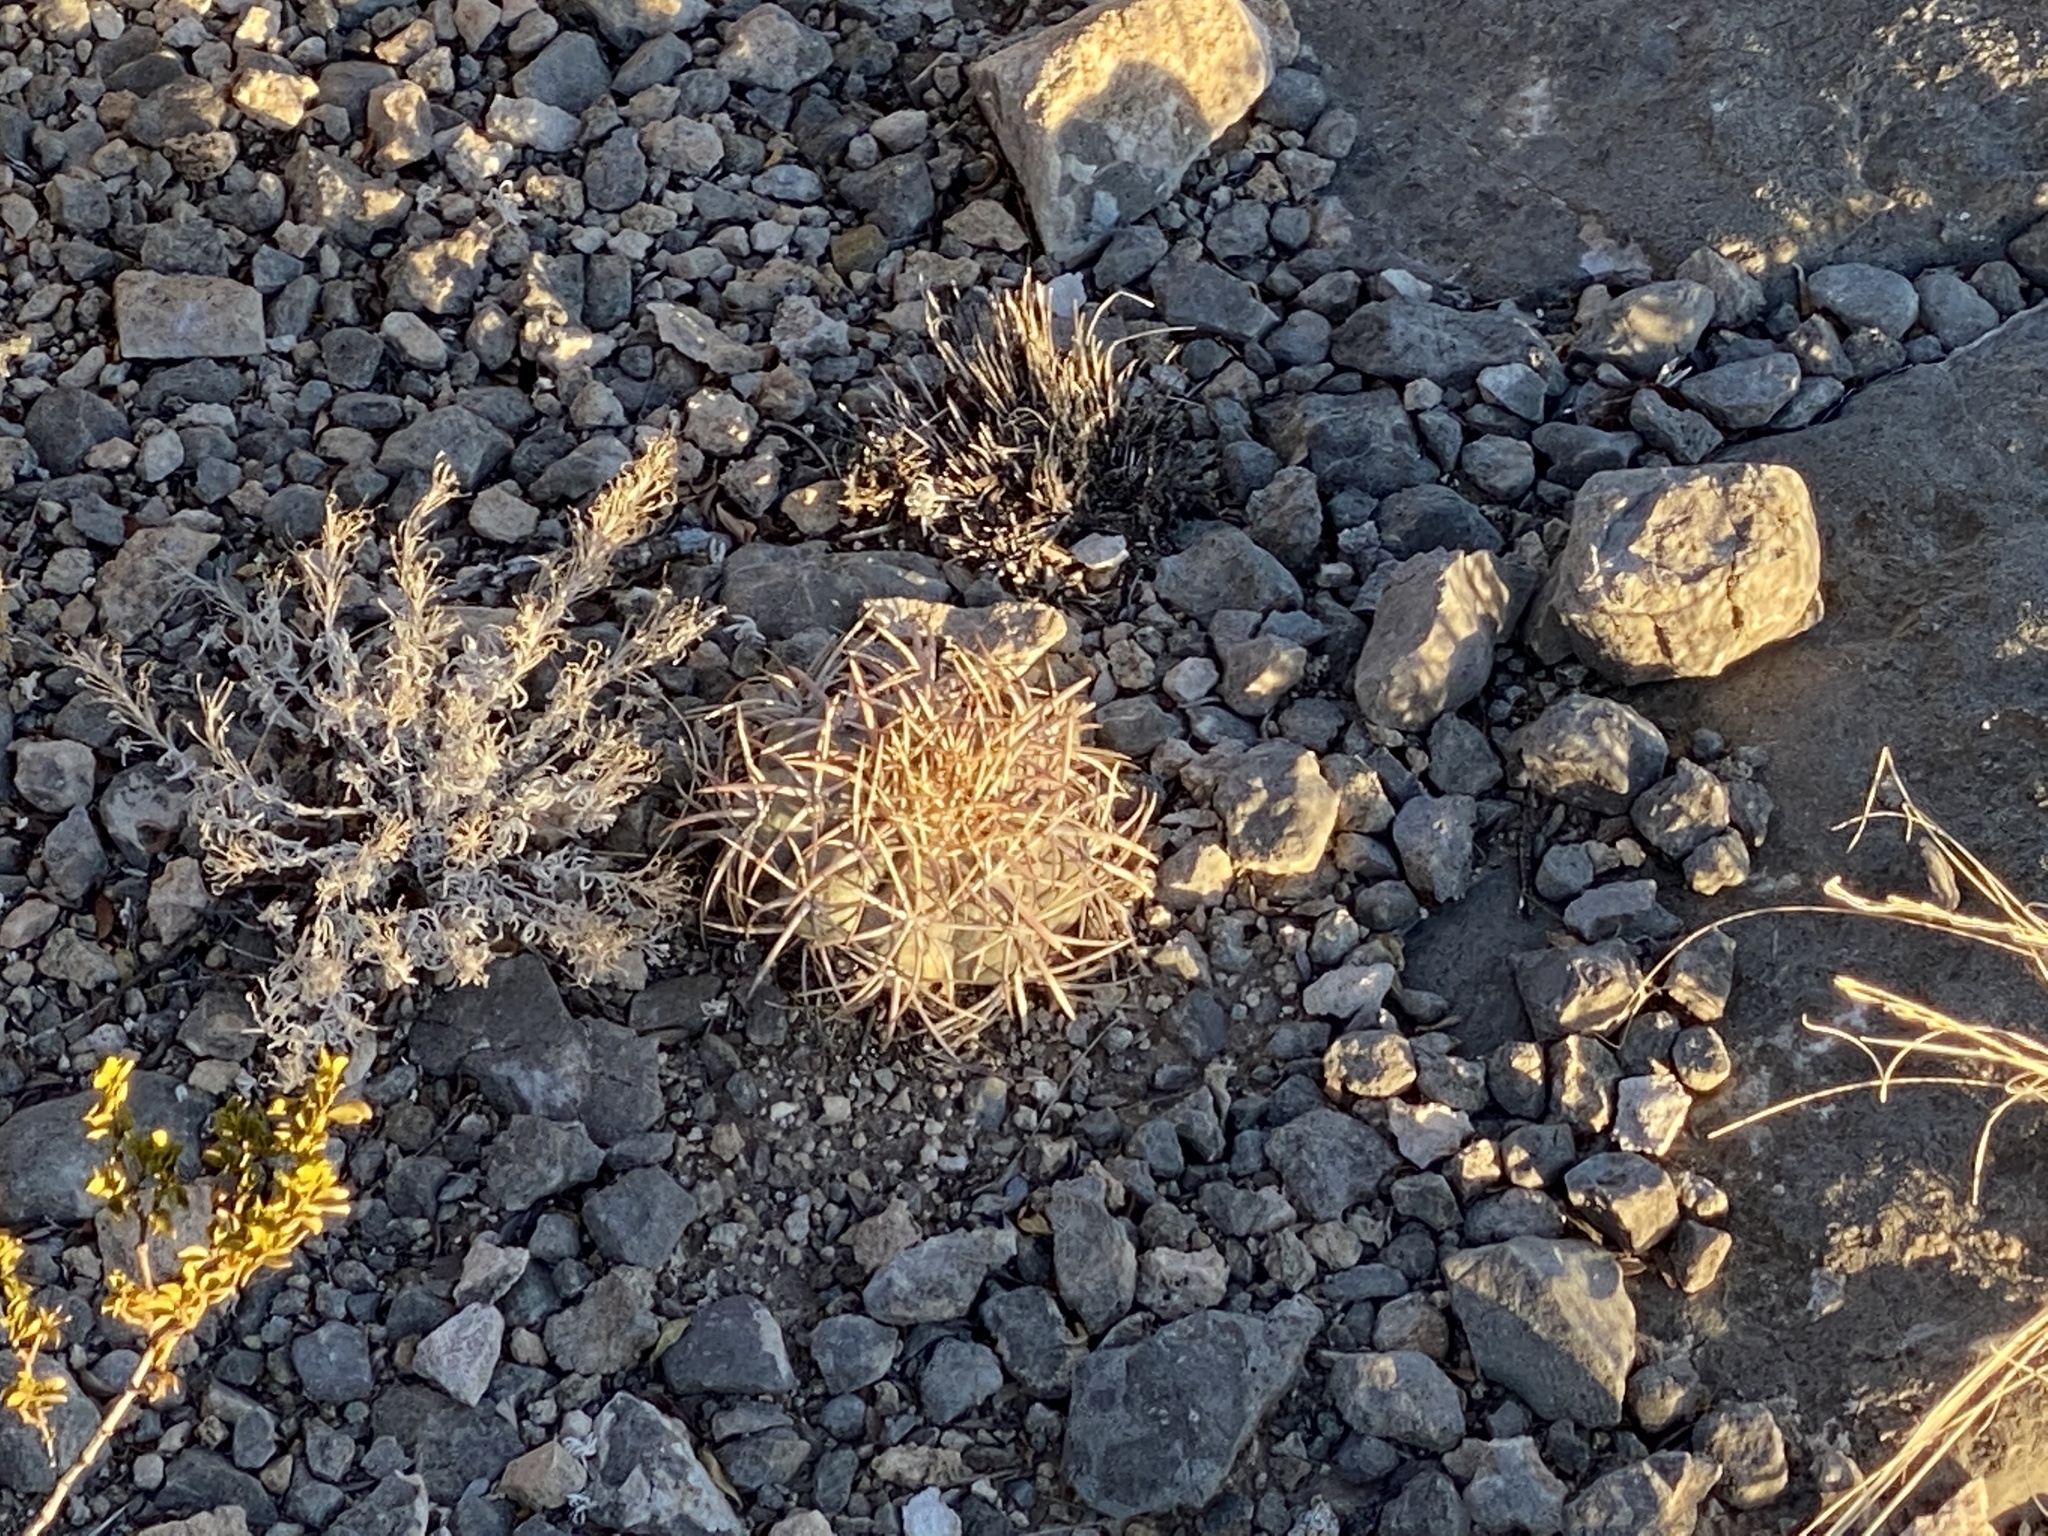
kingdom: Plantae
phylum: Tracheophyta
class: Magnoliopsida
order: Caryophyllales
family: Cactaceae
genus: Echinocactus
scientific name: Echinocactus horizonthalonius
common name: Devilshead
